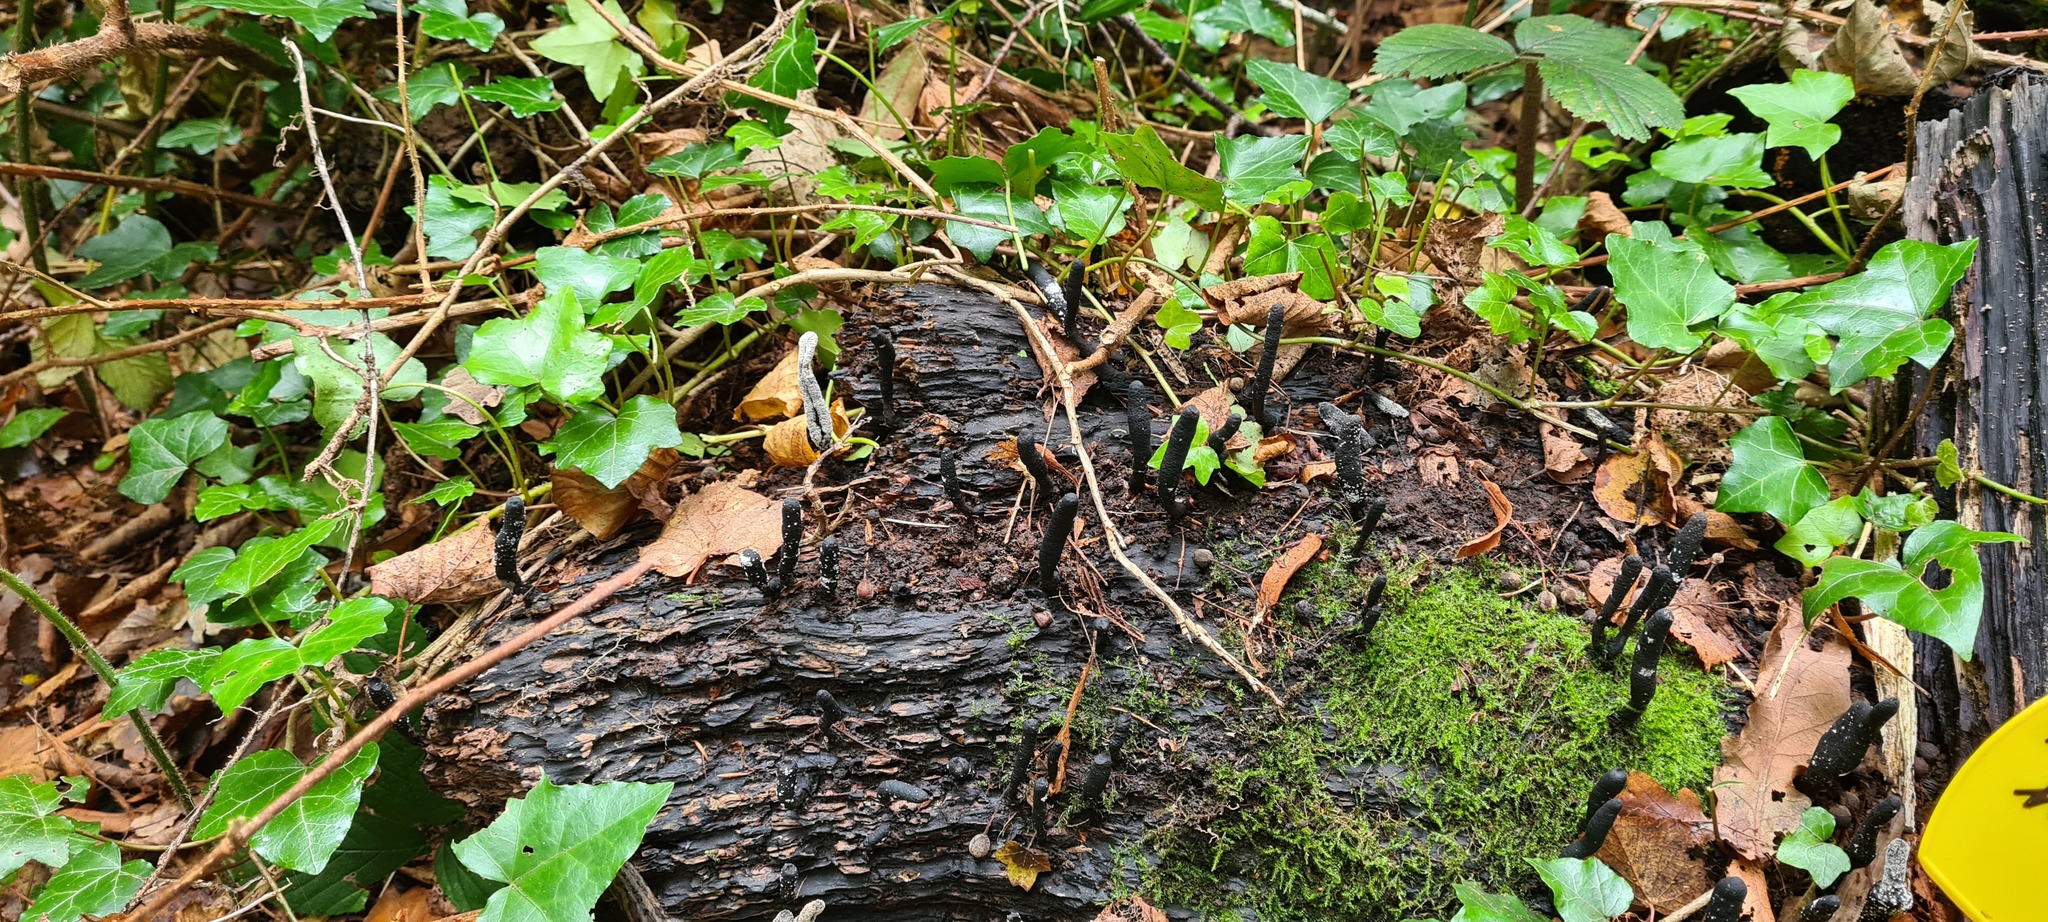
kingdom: Fungi
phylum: Ascomycota
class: Sordariomycetes
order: Xylariales
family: Xylariaceae
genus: Xylaria
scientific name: Xylaria longipes
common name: Dead moll's fingers
